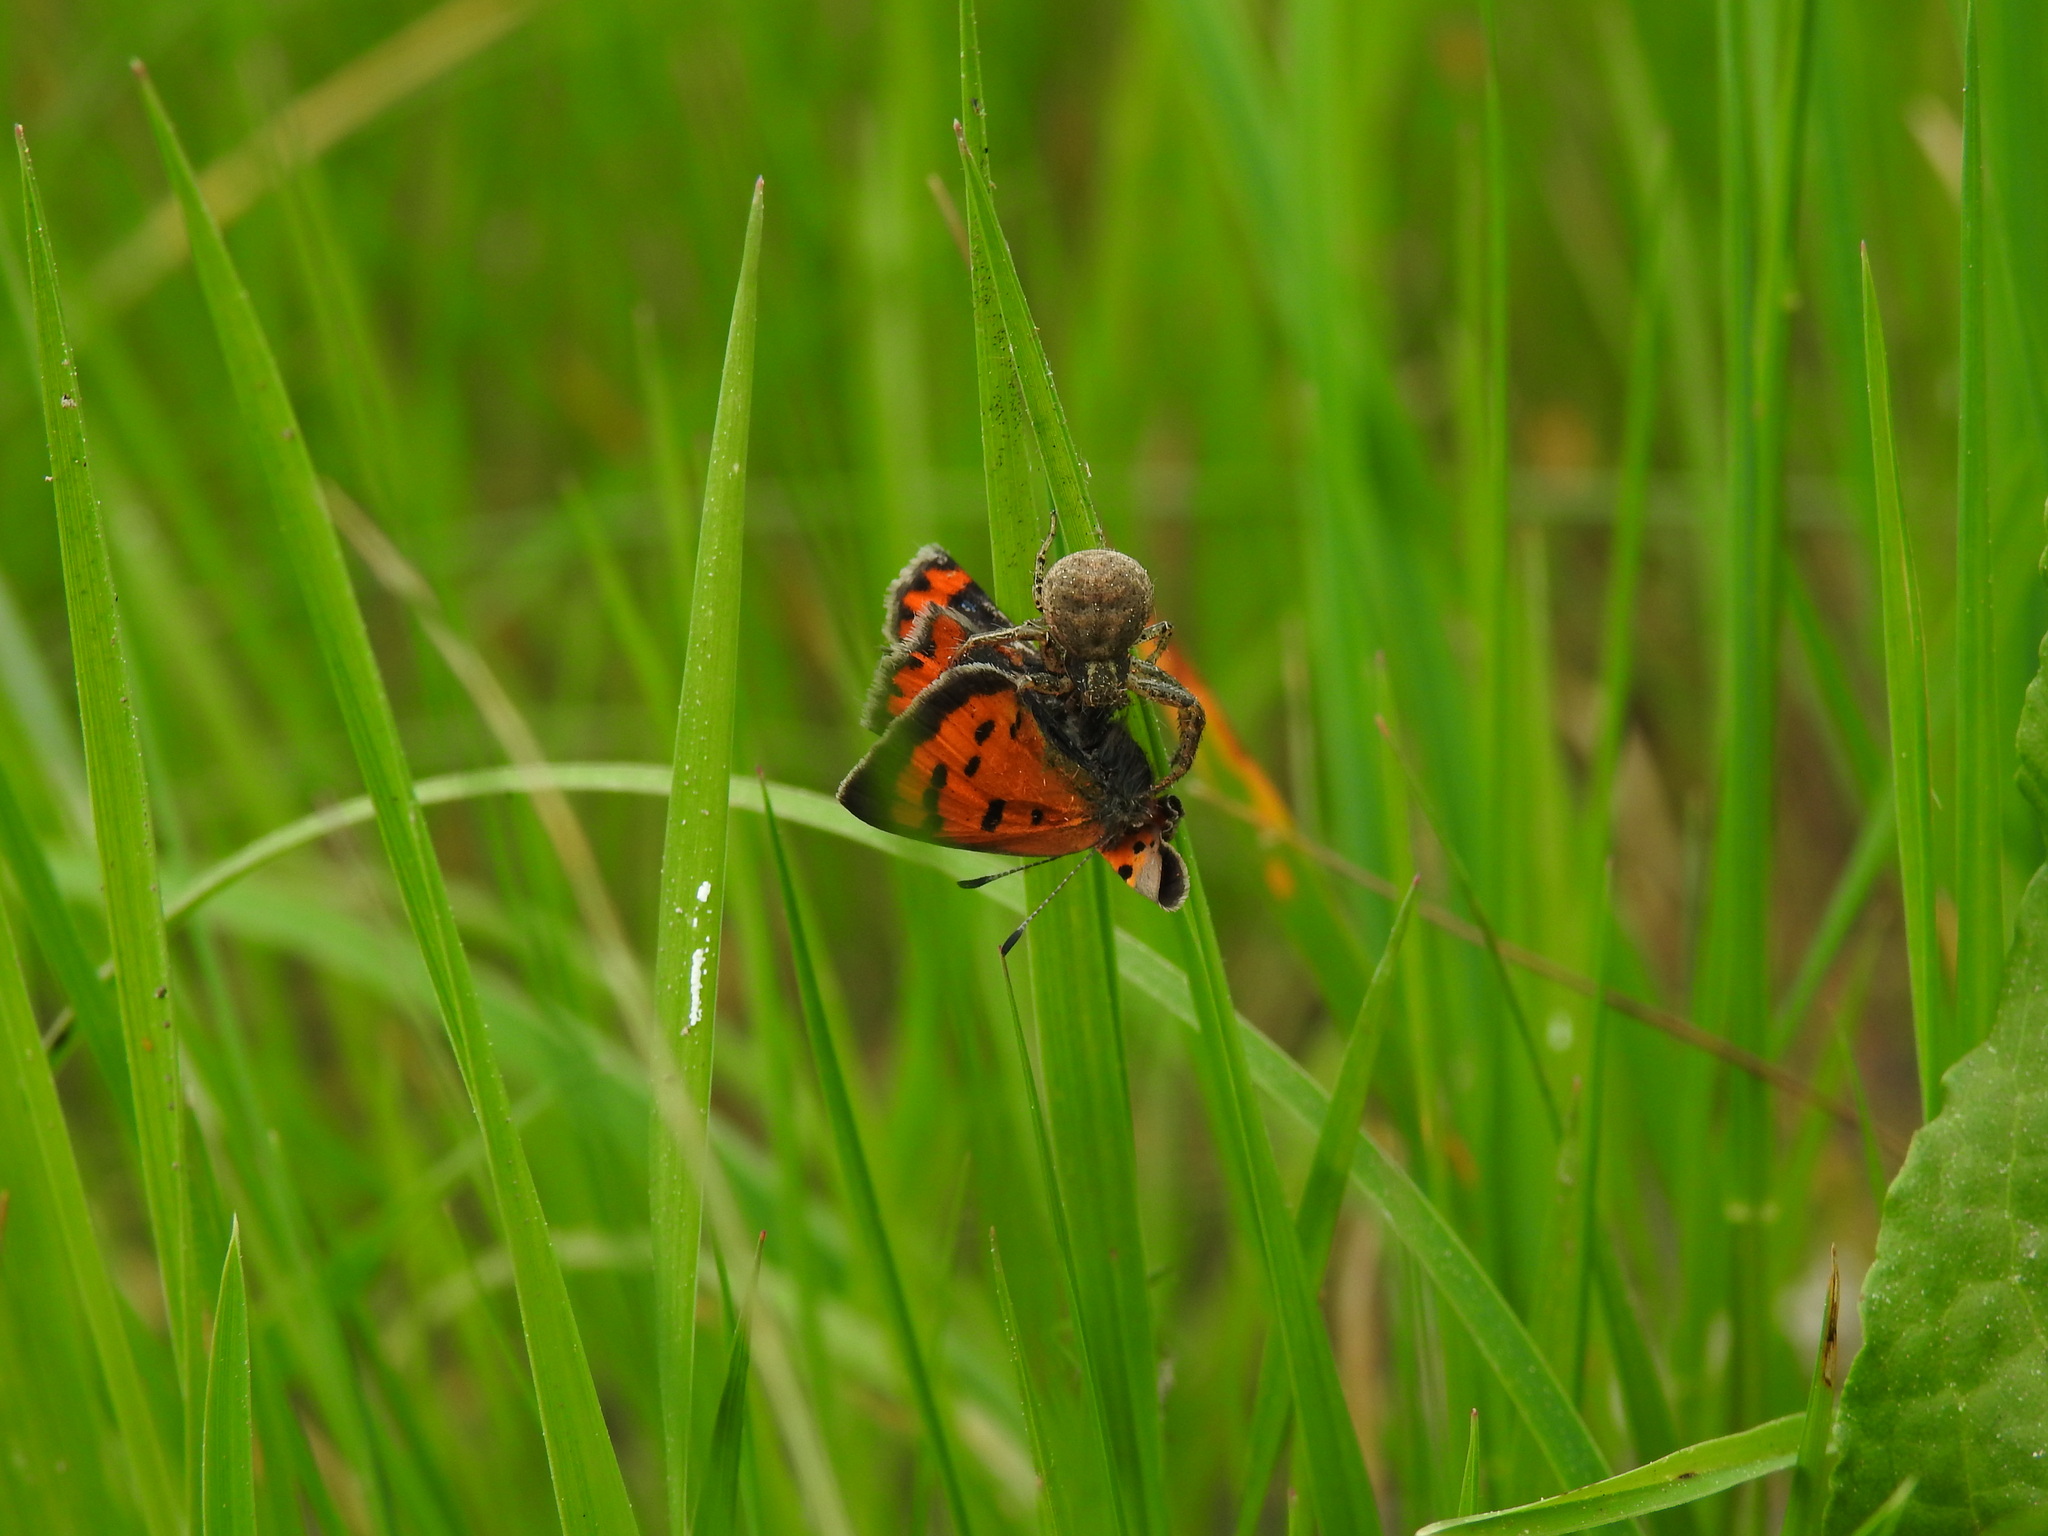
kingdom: Animalia
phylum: Arthropoda
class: Insecta
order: Lepidoptera
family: Lycaenidae
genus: Lycaena
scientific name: Lycaena phlaeas
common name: Small copper
